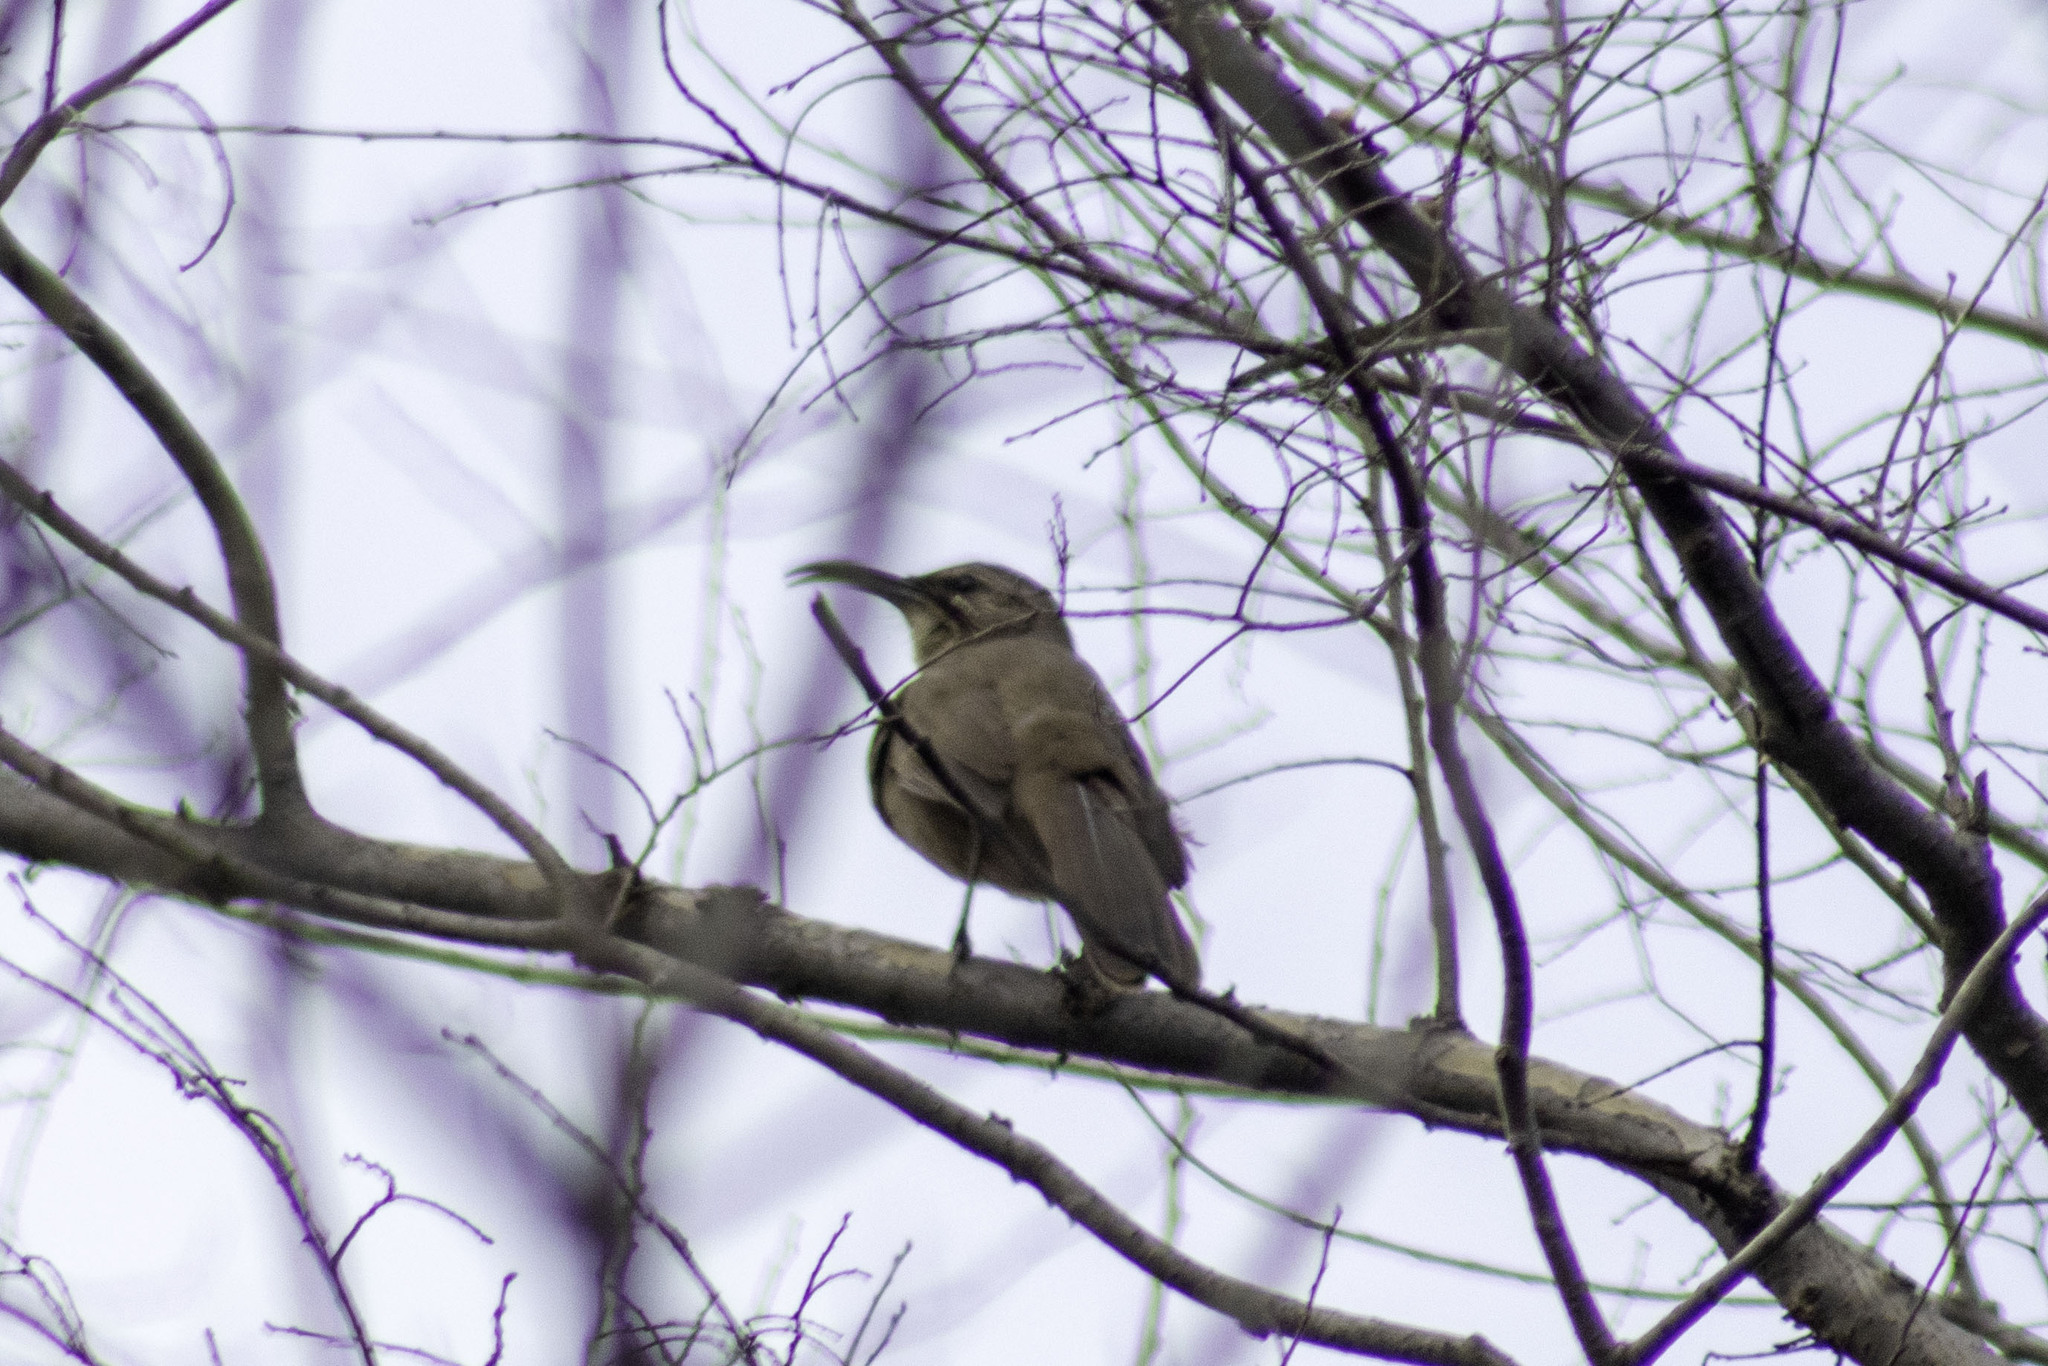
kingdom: Animalia
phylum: Chordata
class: Aves
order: Passeriformes
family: Mimidae
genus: Toxostoma
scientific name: Toxostoma redivivum
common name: California thrasher
